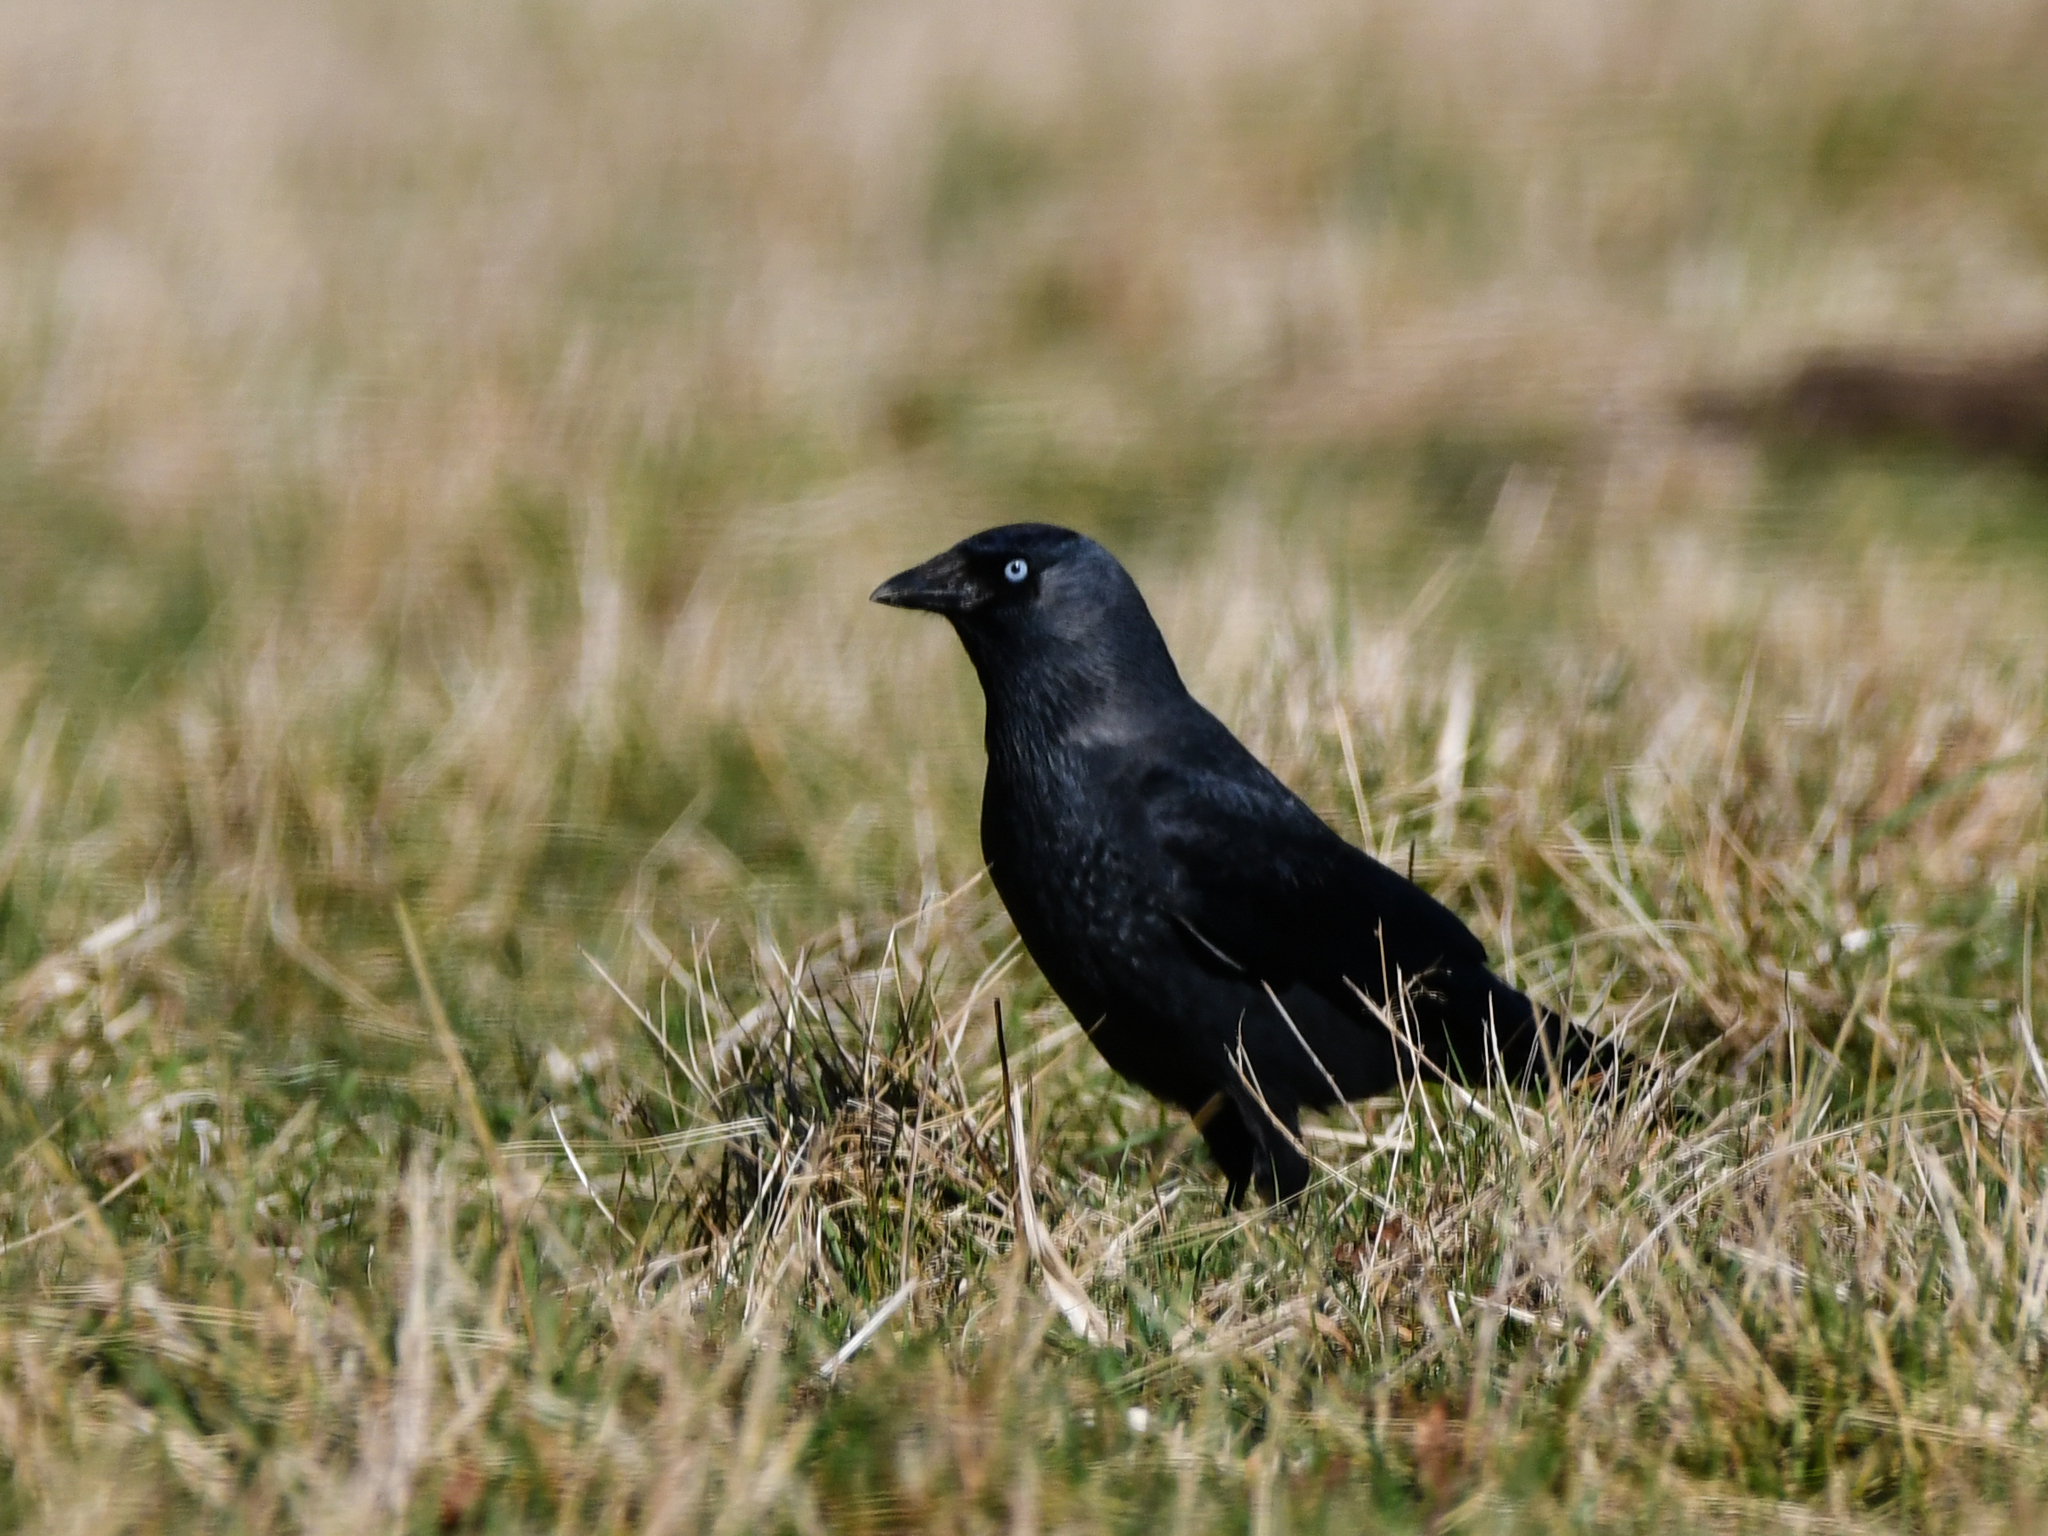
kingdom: Animalia
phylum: Chordata
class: Aves
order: Passeriformes
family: Corvidae
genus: Coloeus
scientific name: Coloeus monedula
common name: Western jackdaw
